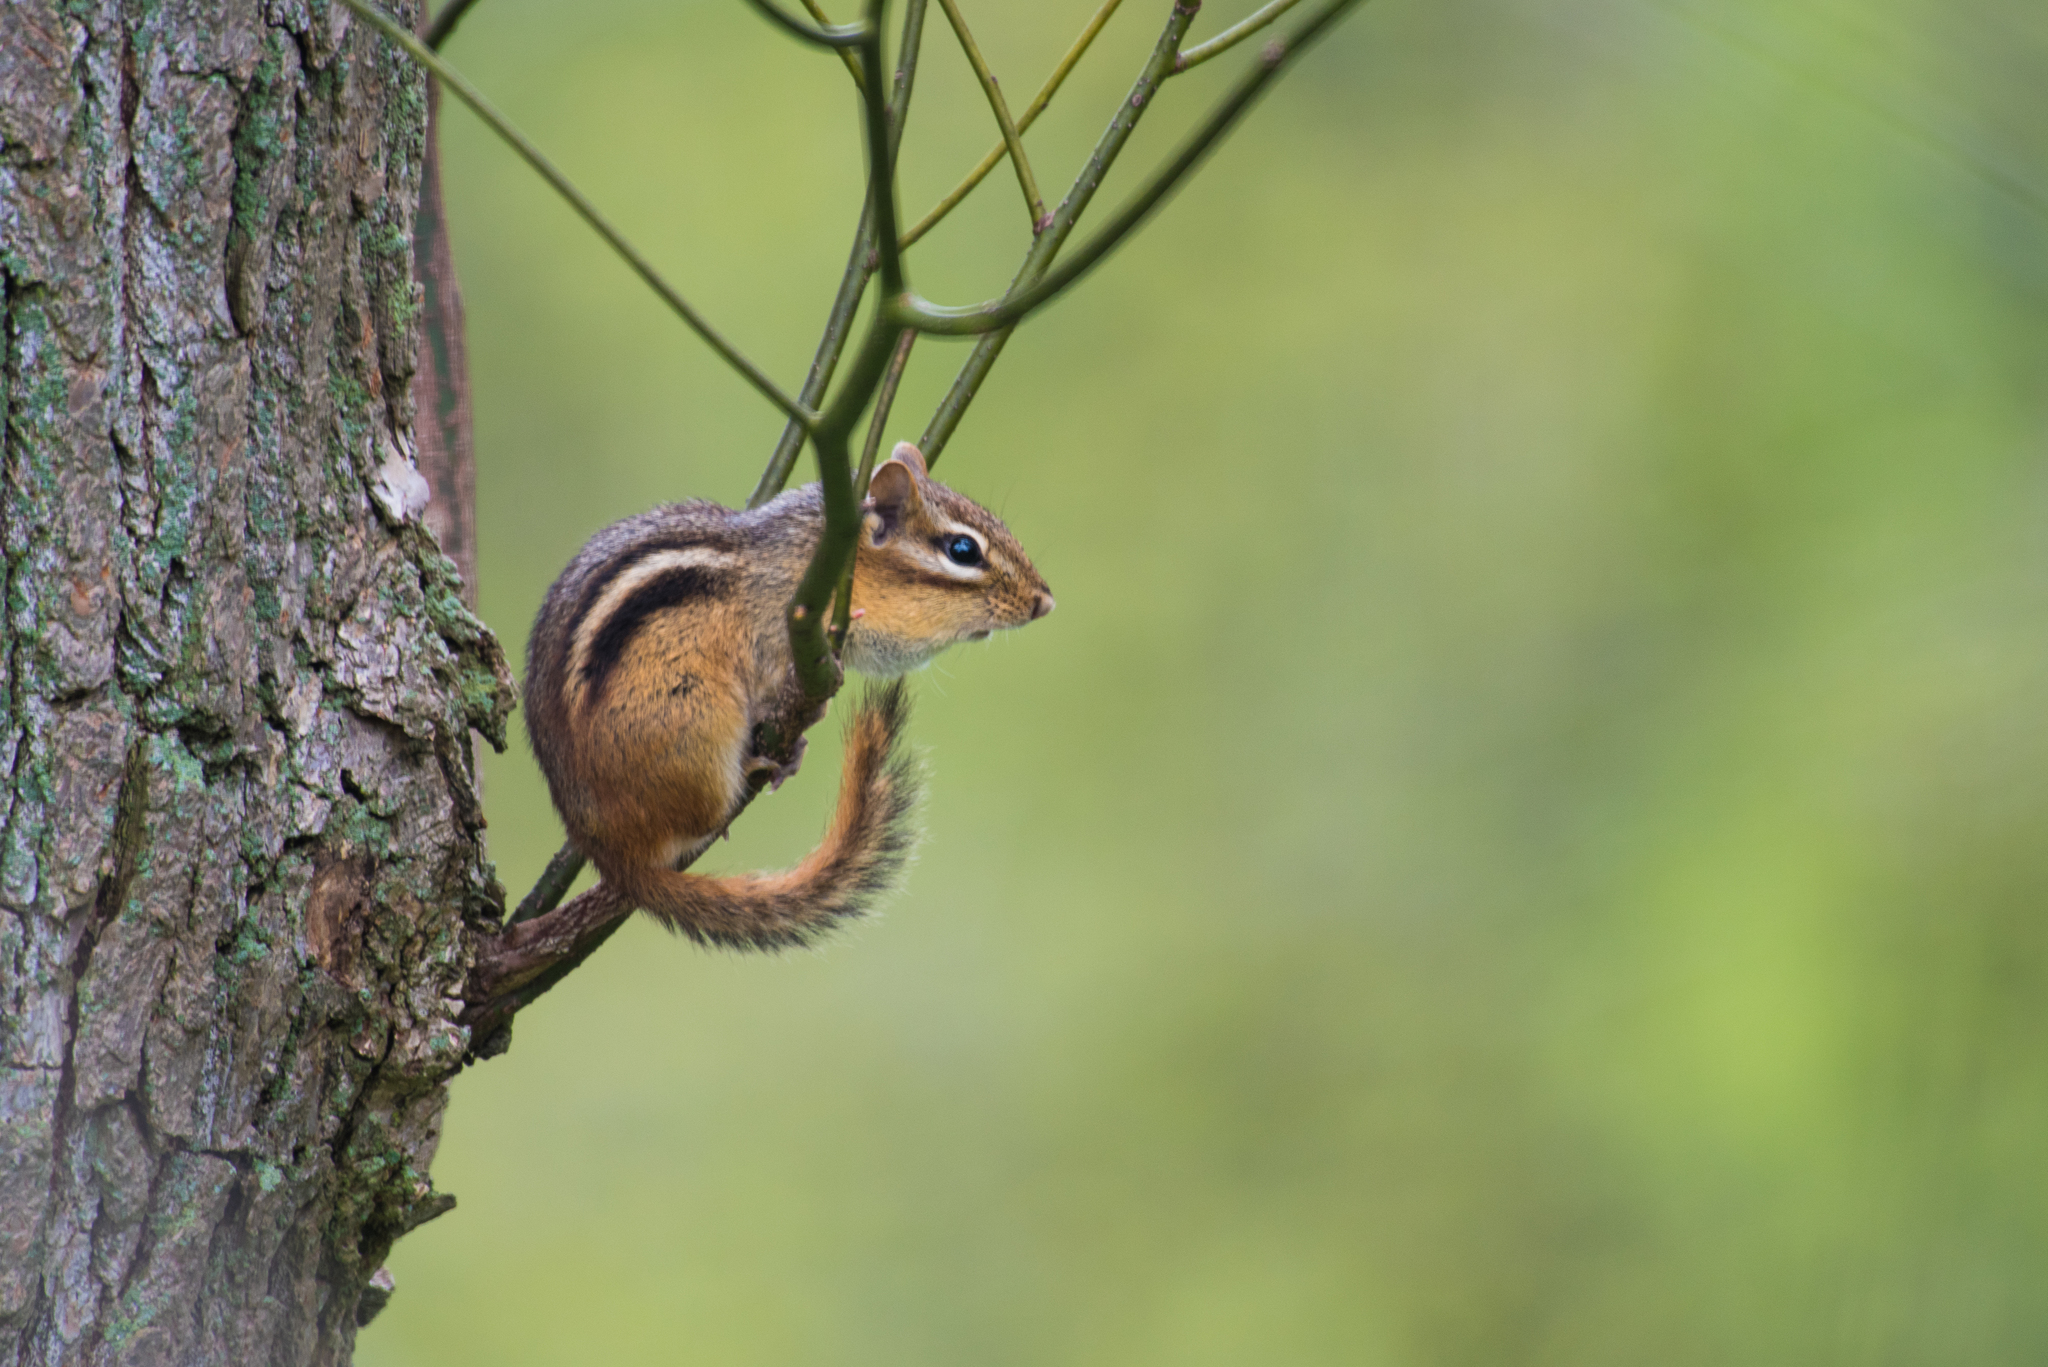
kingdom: Animalia
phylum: Chordata
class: Mammalia
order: Rodentia
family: Sciuridae
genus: Tamias
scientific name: Tamias striatus
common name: Eastern chipmunk
